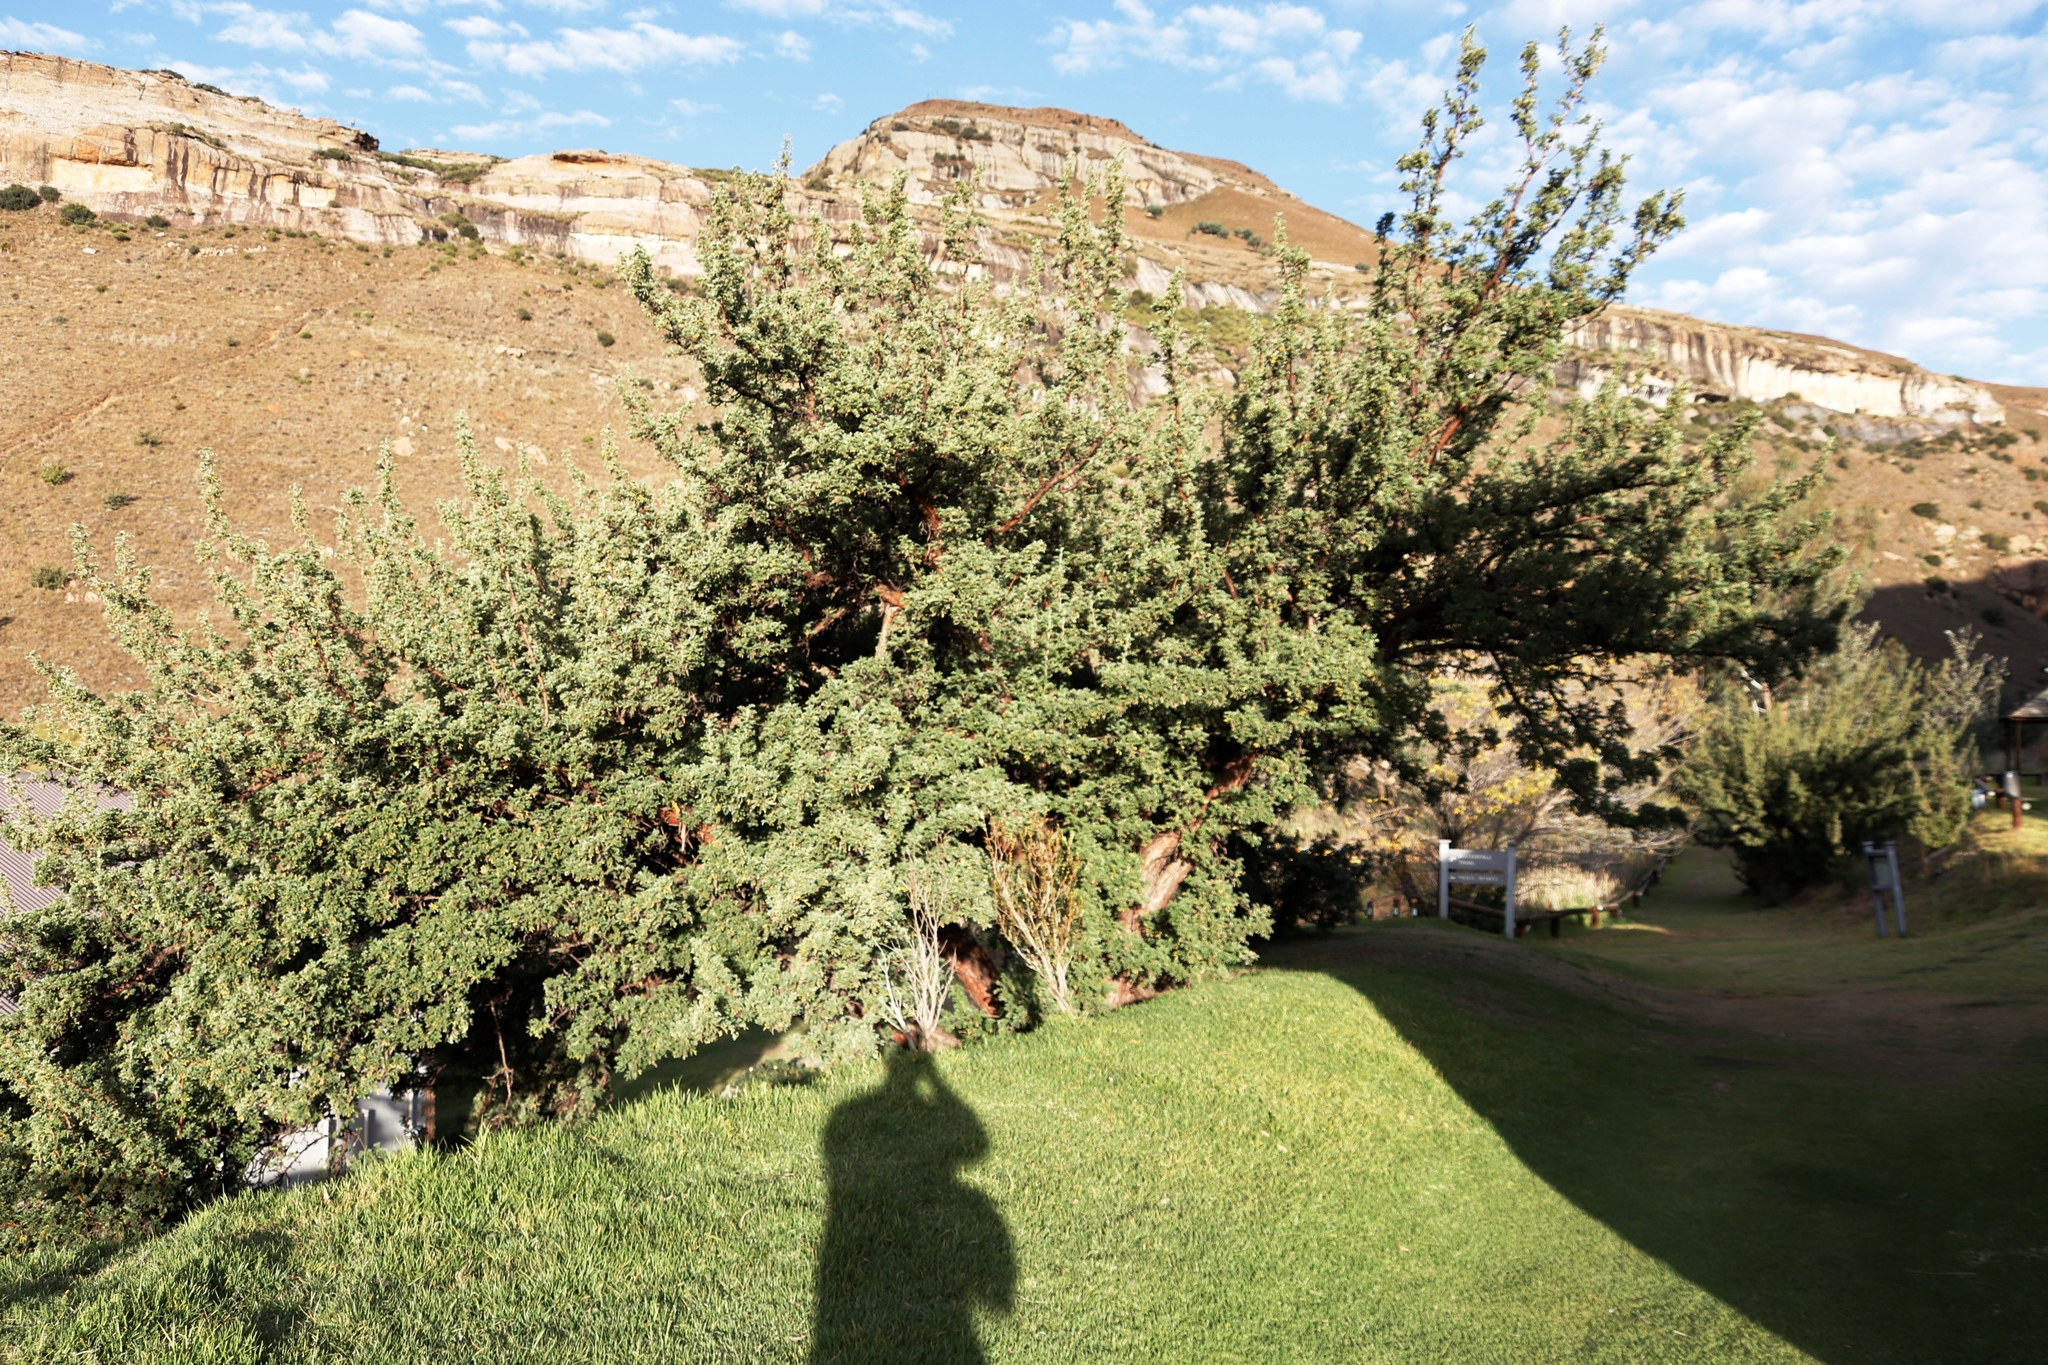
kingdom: Plantae
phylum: Tracheophyta
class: Magnoliopsida
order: Rosales
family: Rosaceae
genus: Leucosidea
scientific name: Leucosidea sericea
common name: Oldwood
